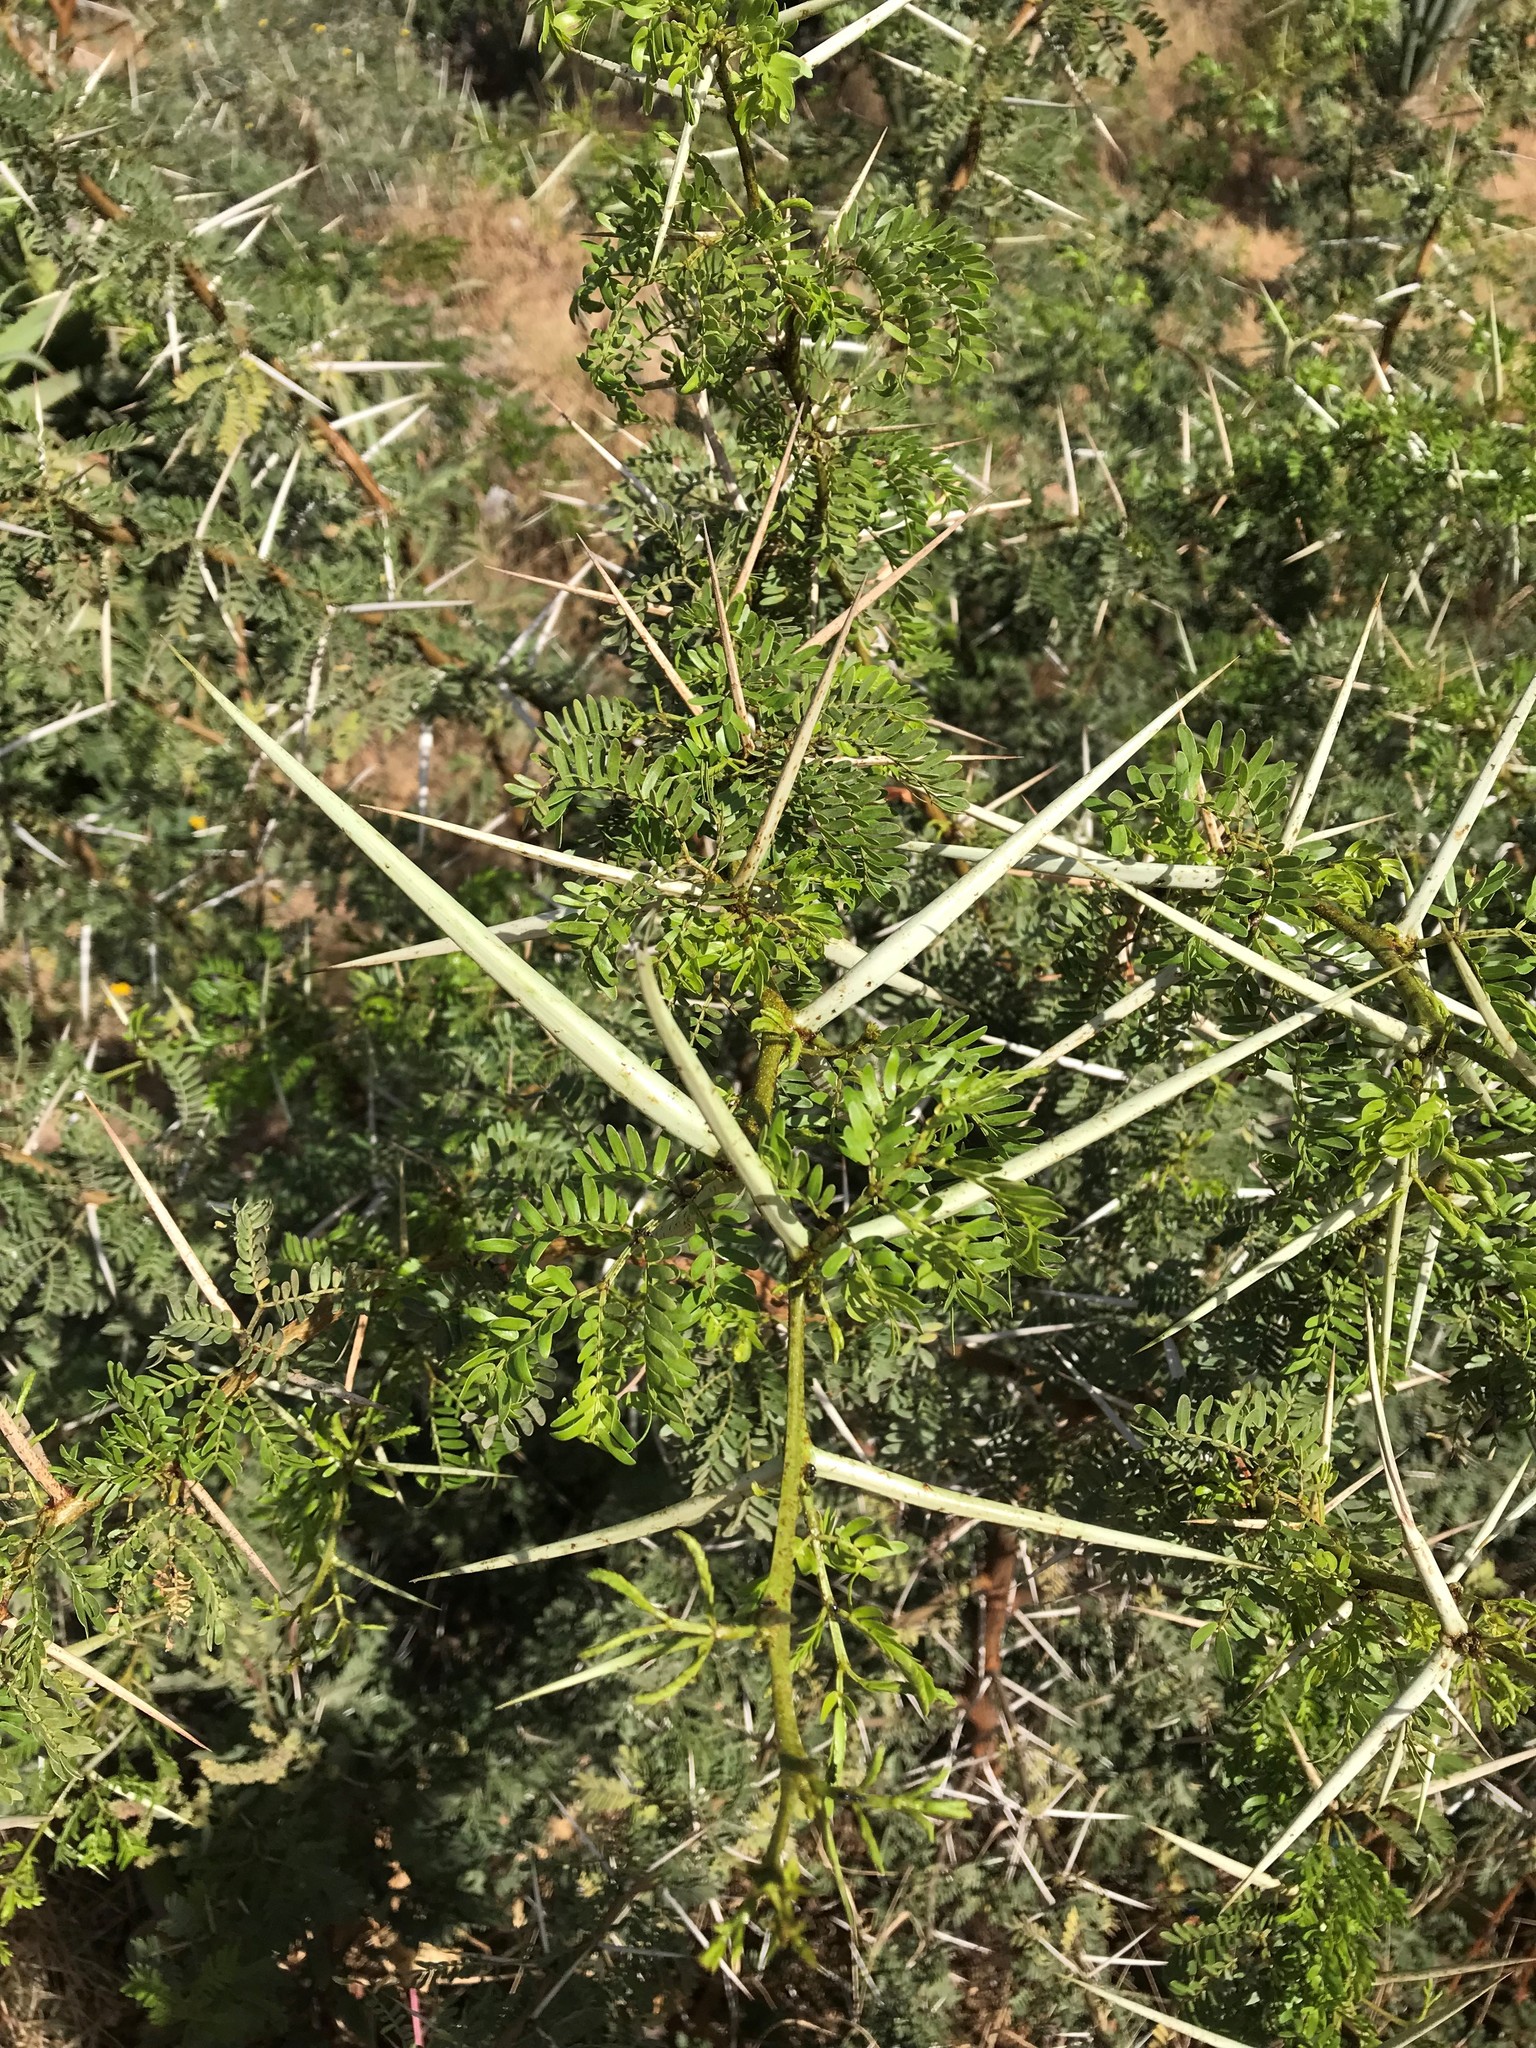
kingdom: Plantae
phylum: Tracheophyta
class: Magnoliopsida
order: Fabales
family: Fabaceae
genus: Vachellia
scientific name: Vachellia karroo
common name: Sweet thorn
